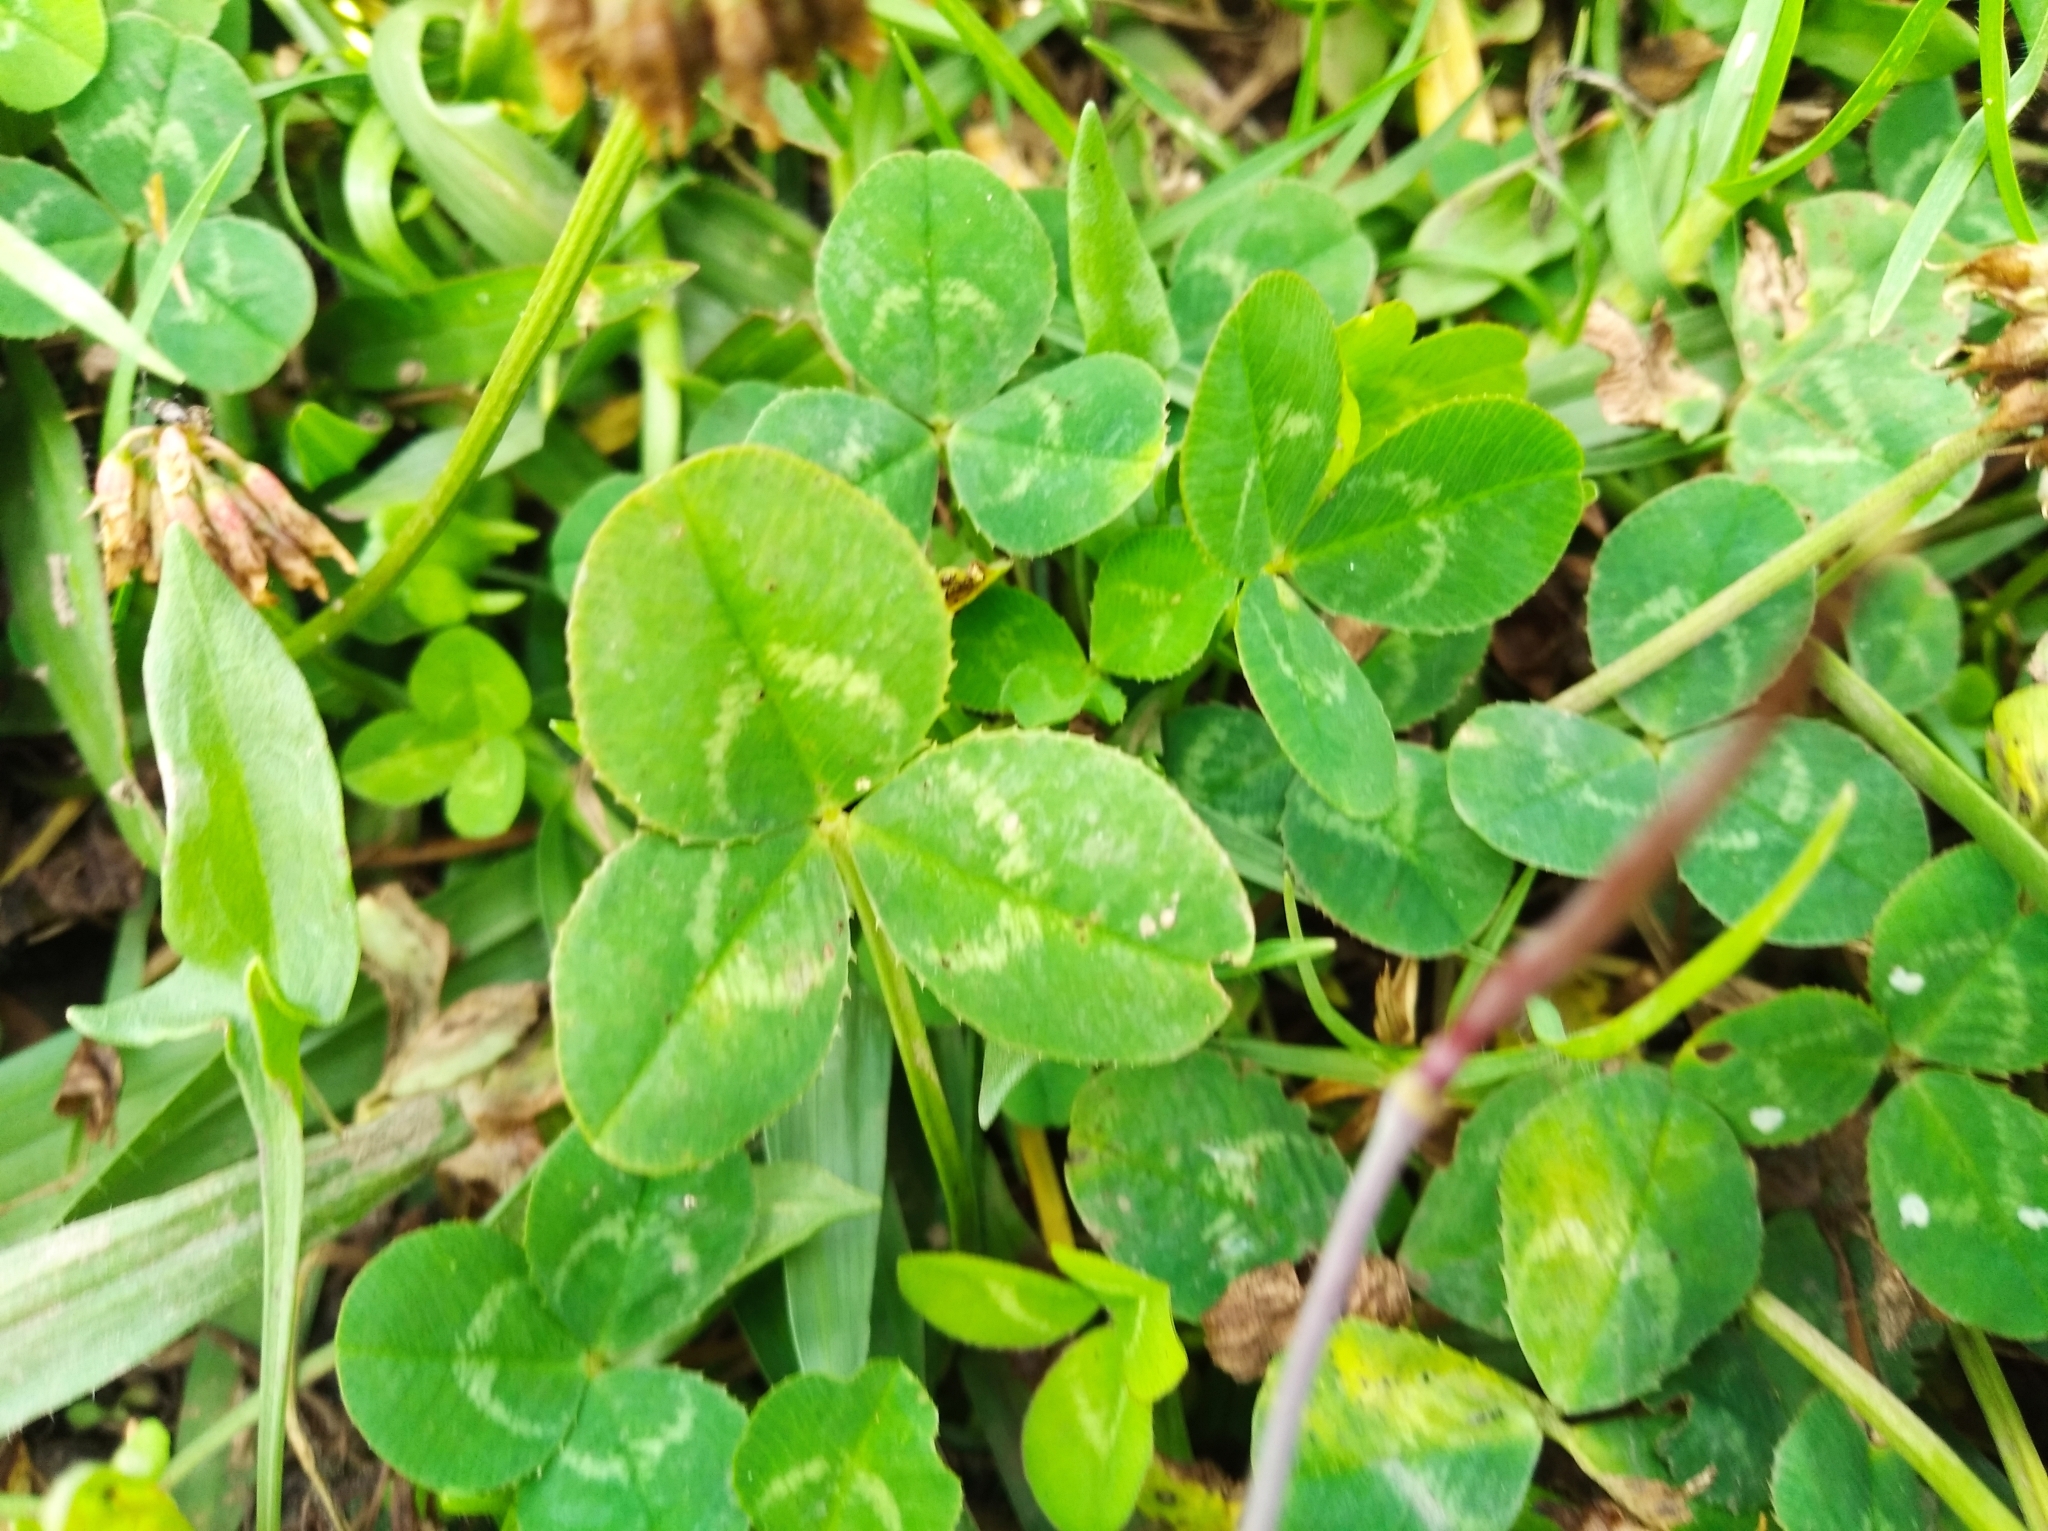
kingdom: Plantae
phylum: Tracheophyta
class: Magnoliopsida
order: Fabales
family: Fabaceae
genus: Trifolium
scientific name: Trifolium repens
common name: White clover
